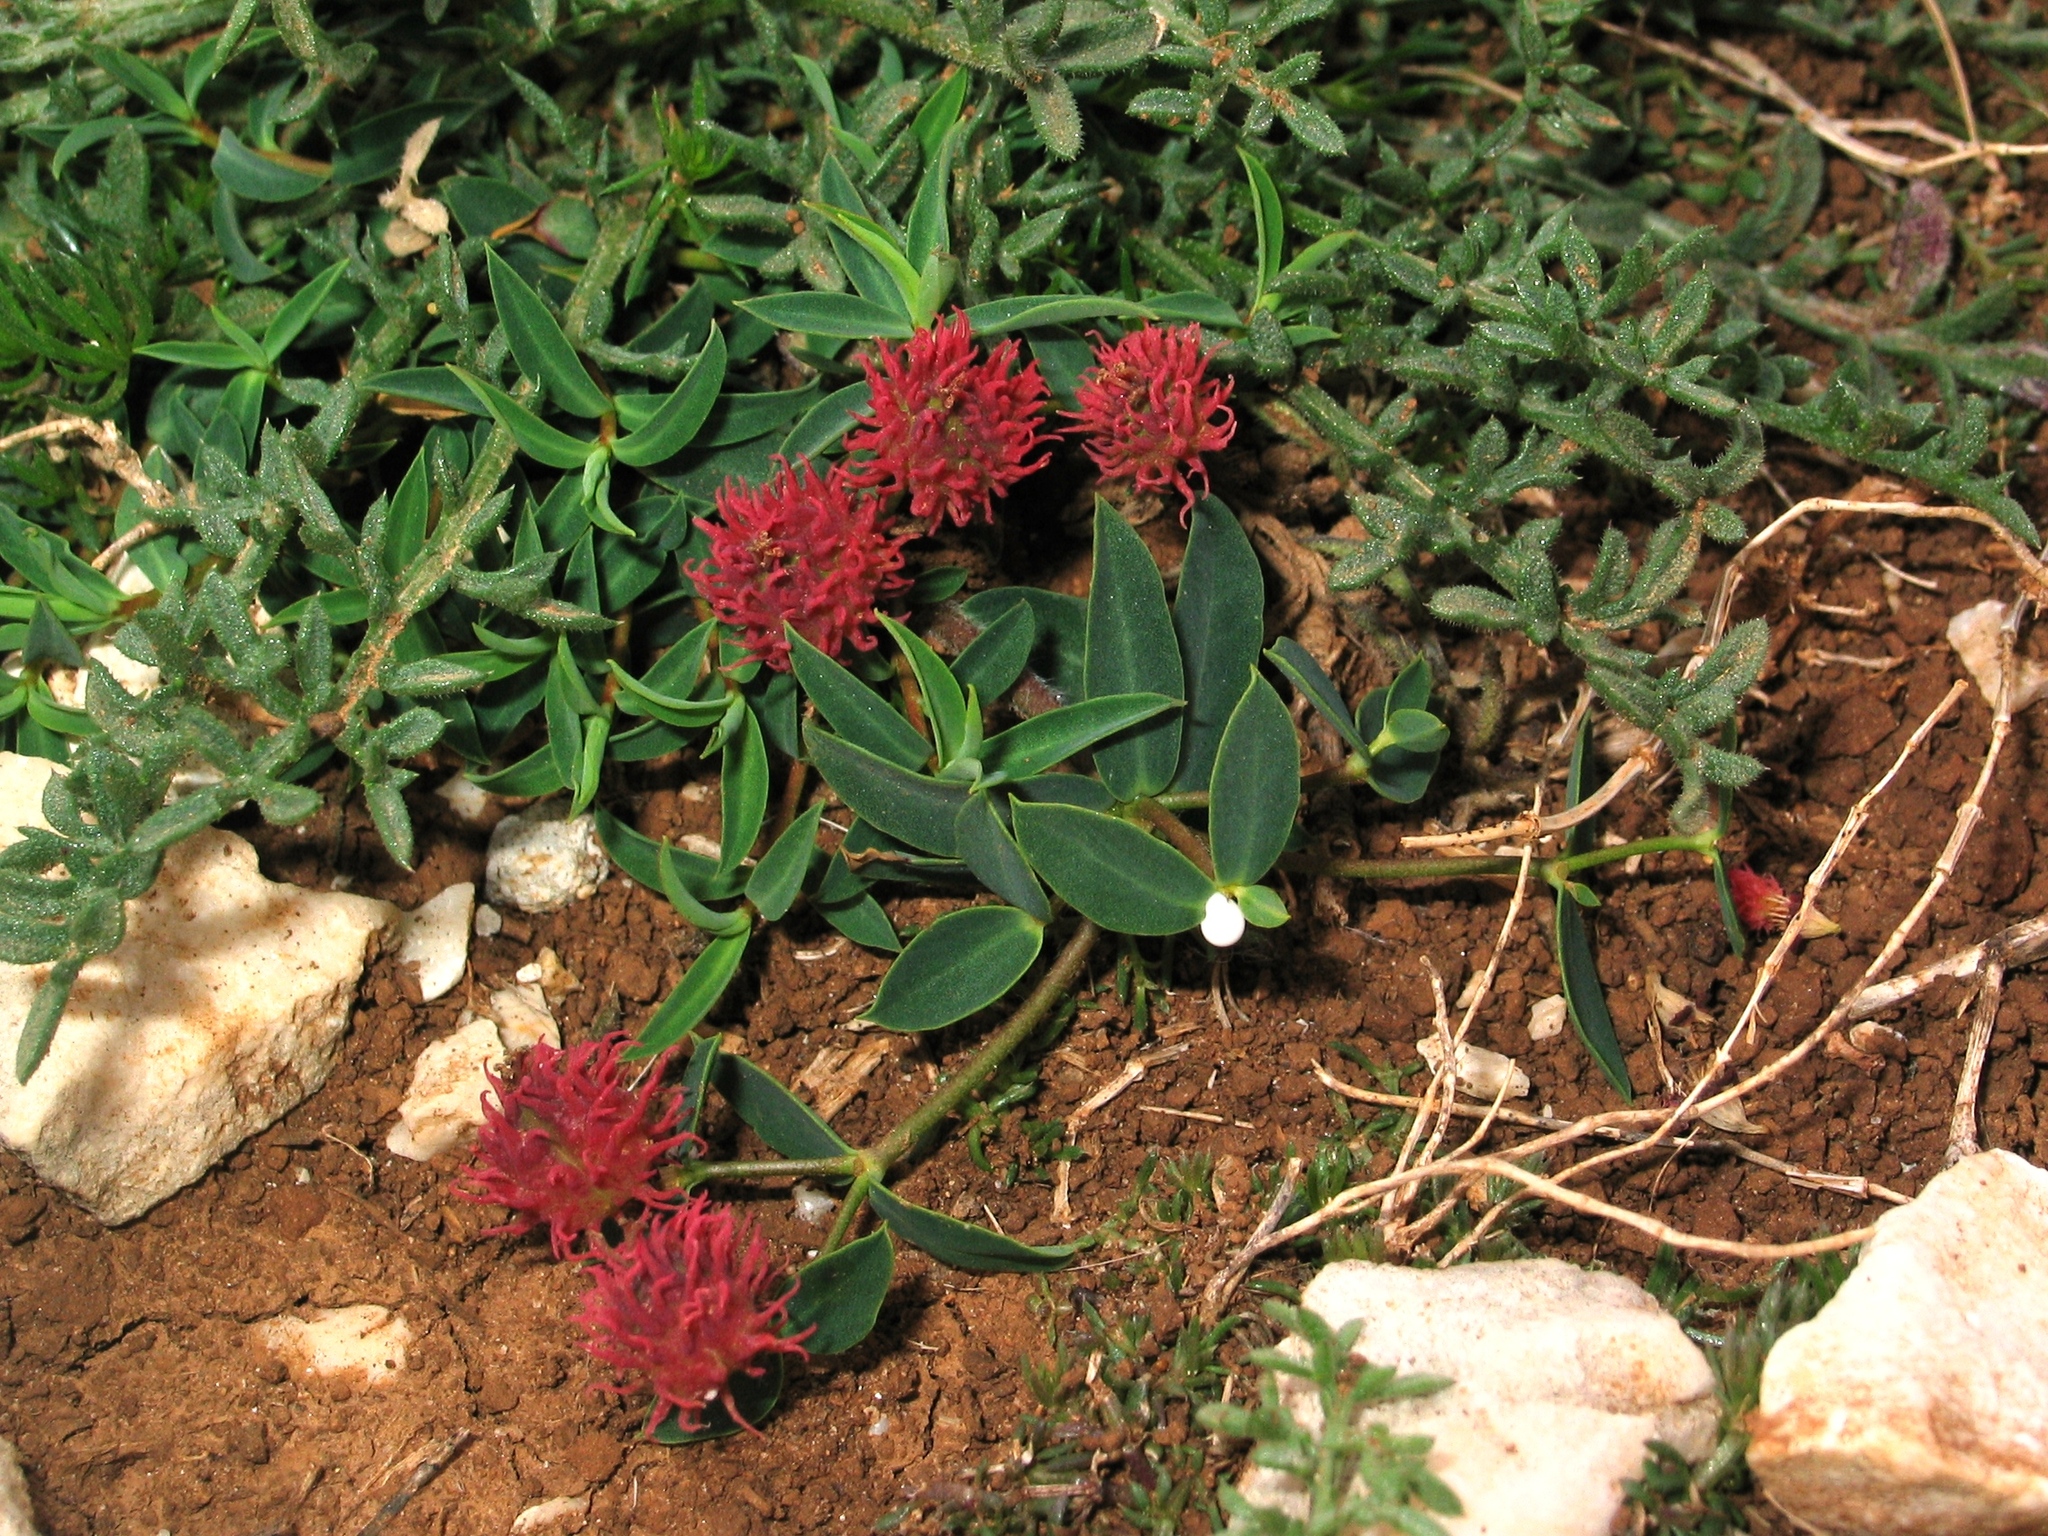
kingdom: Plantae
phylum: Tracheophyta
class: Magnoliopsida
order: Malpighiales
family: Euphorbiaceae
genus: Euphorbia
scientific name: Euphorbia fragifera
